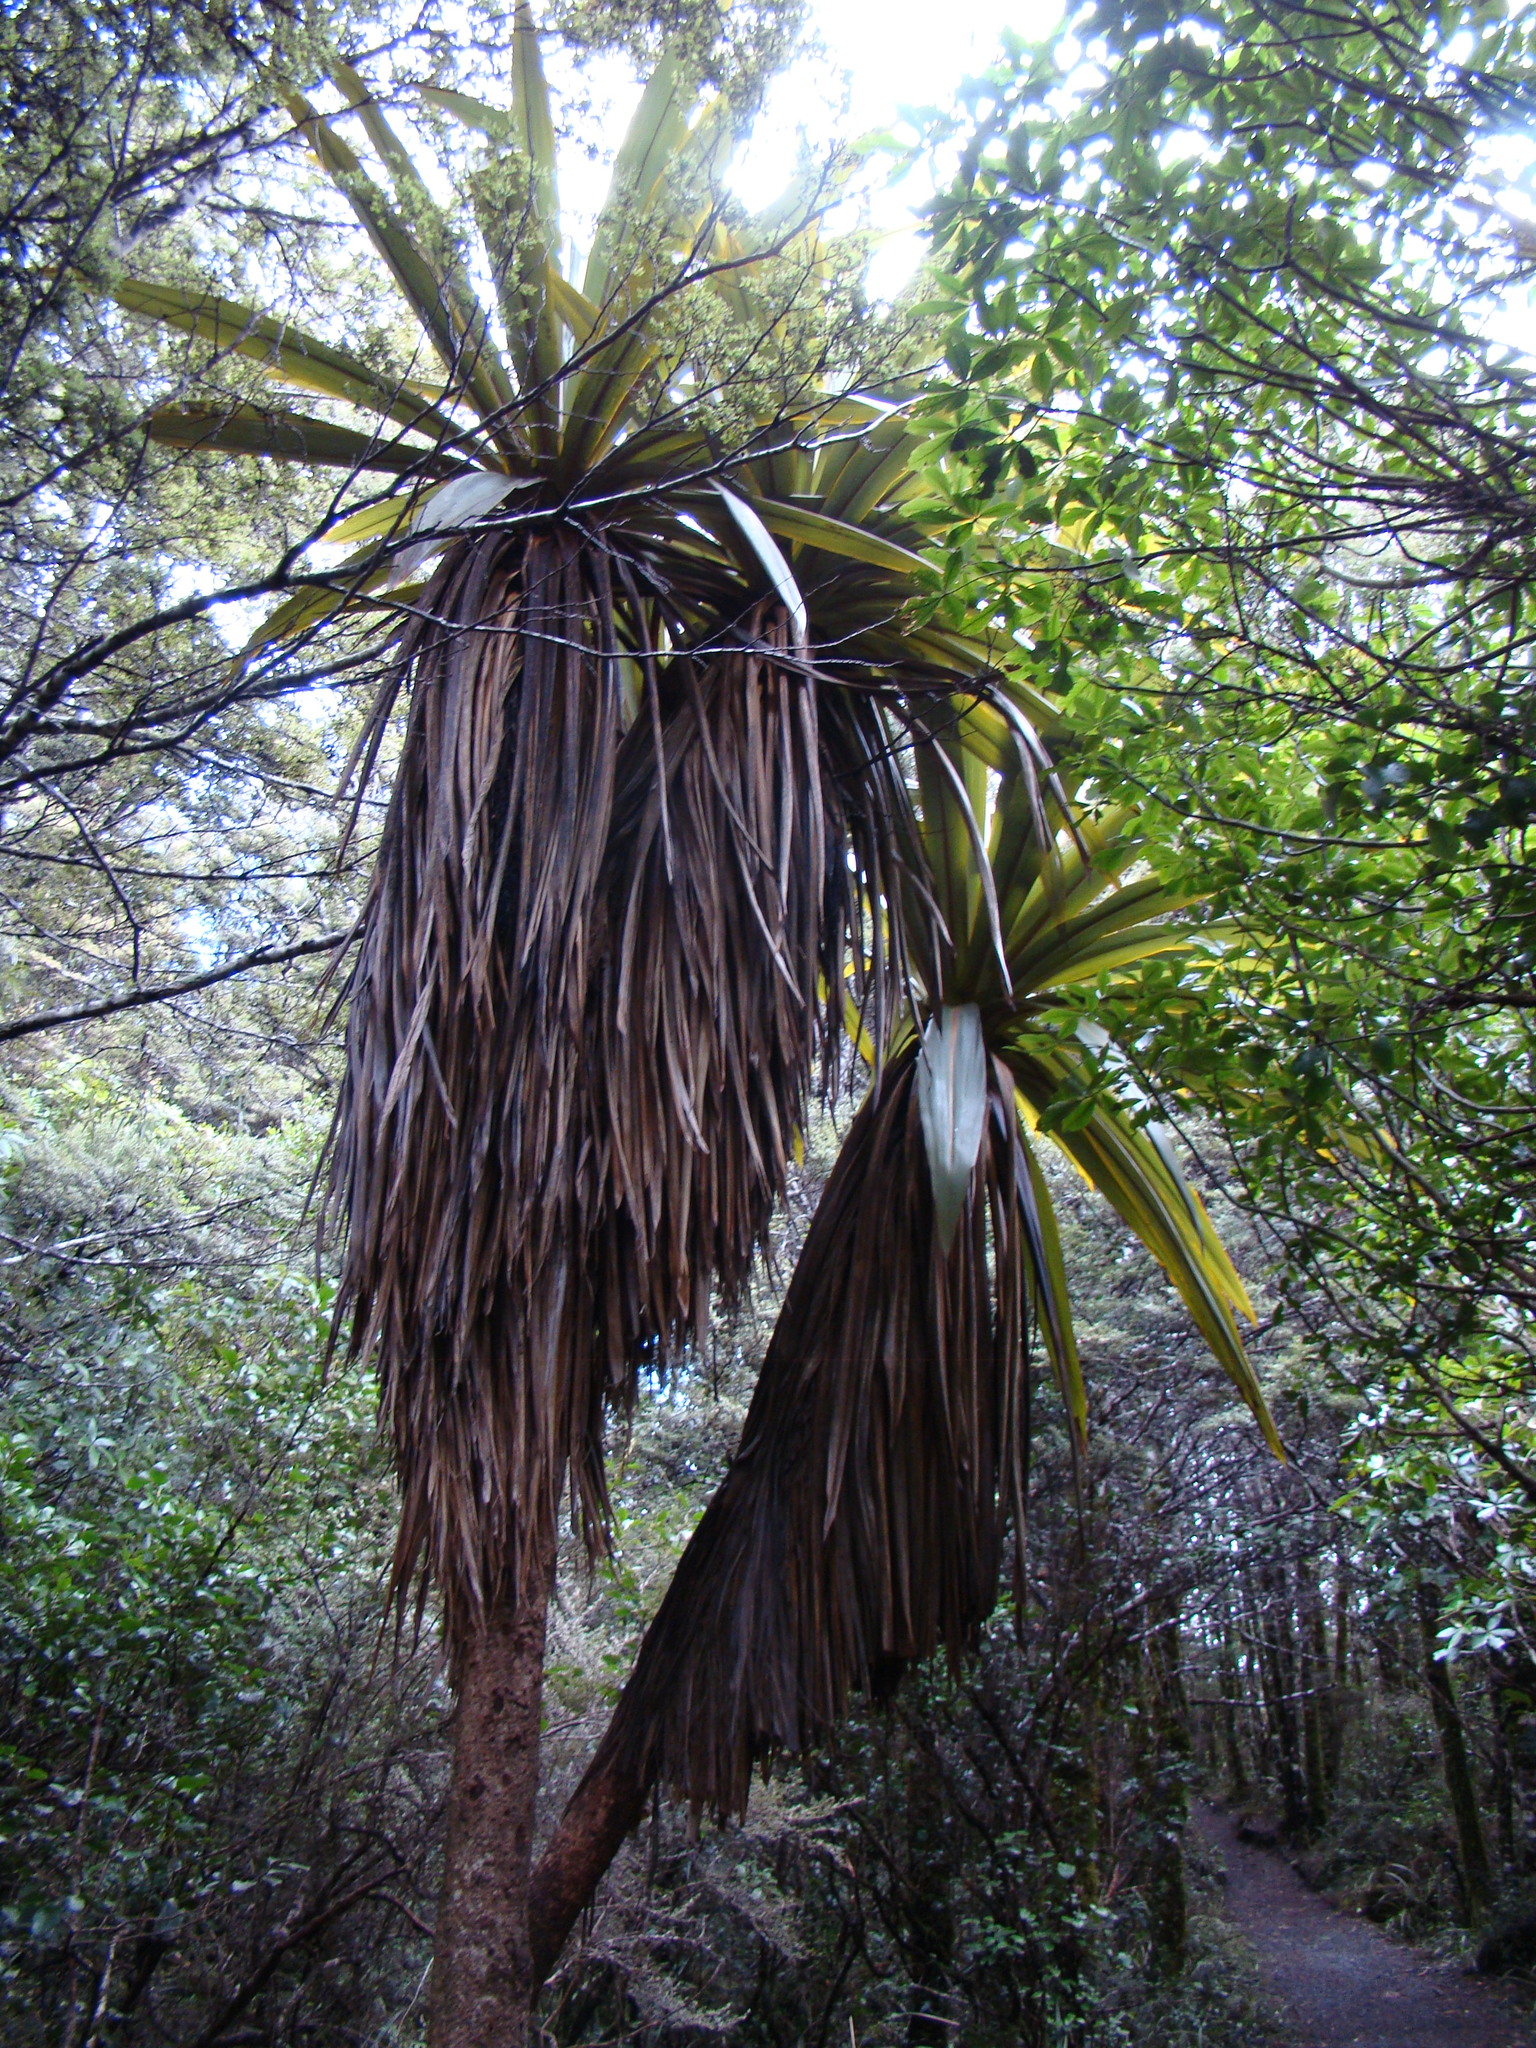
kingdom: Plantae
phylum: Tracheophyta
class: Liliopsida
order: Asparagales
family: Asparagaceae
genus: Cordyline
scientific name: Cordyline indivisa
